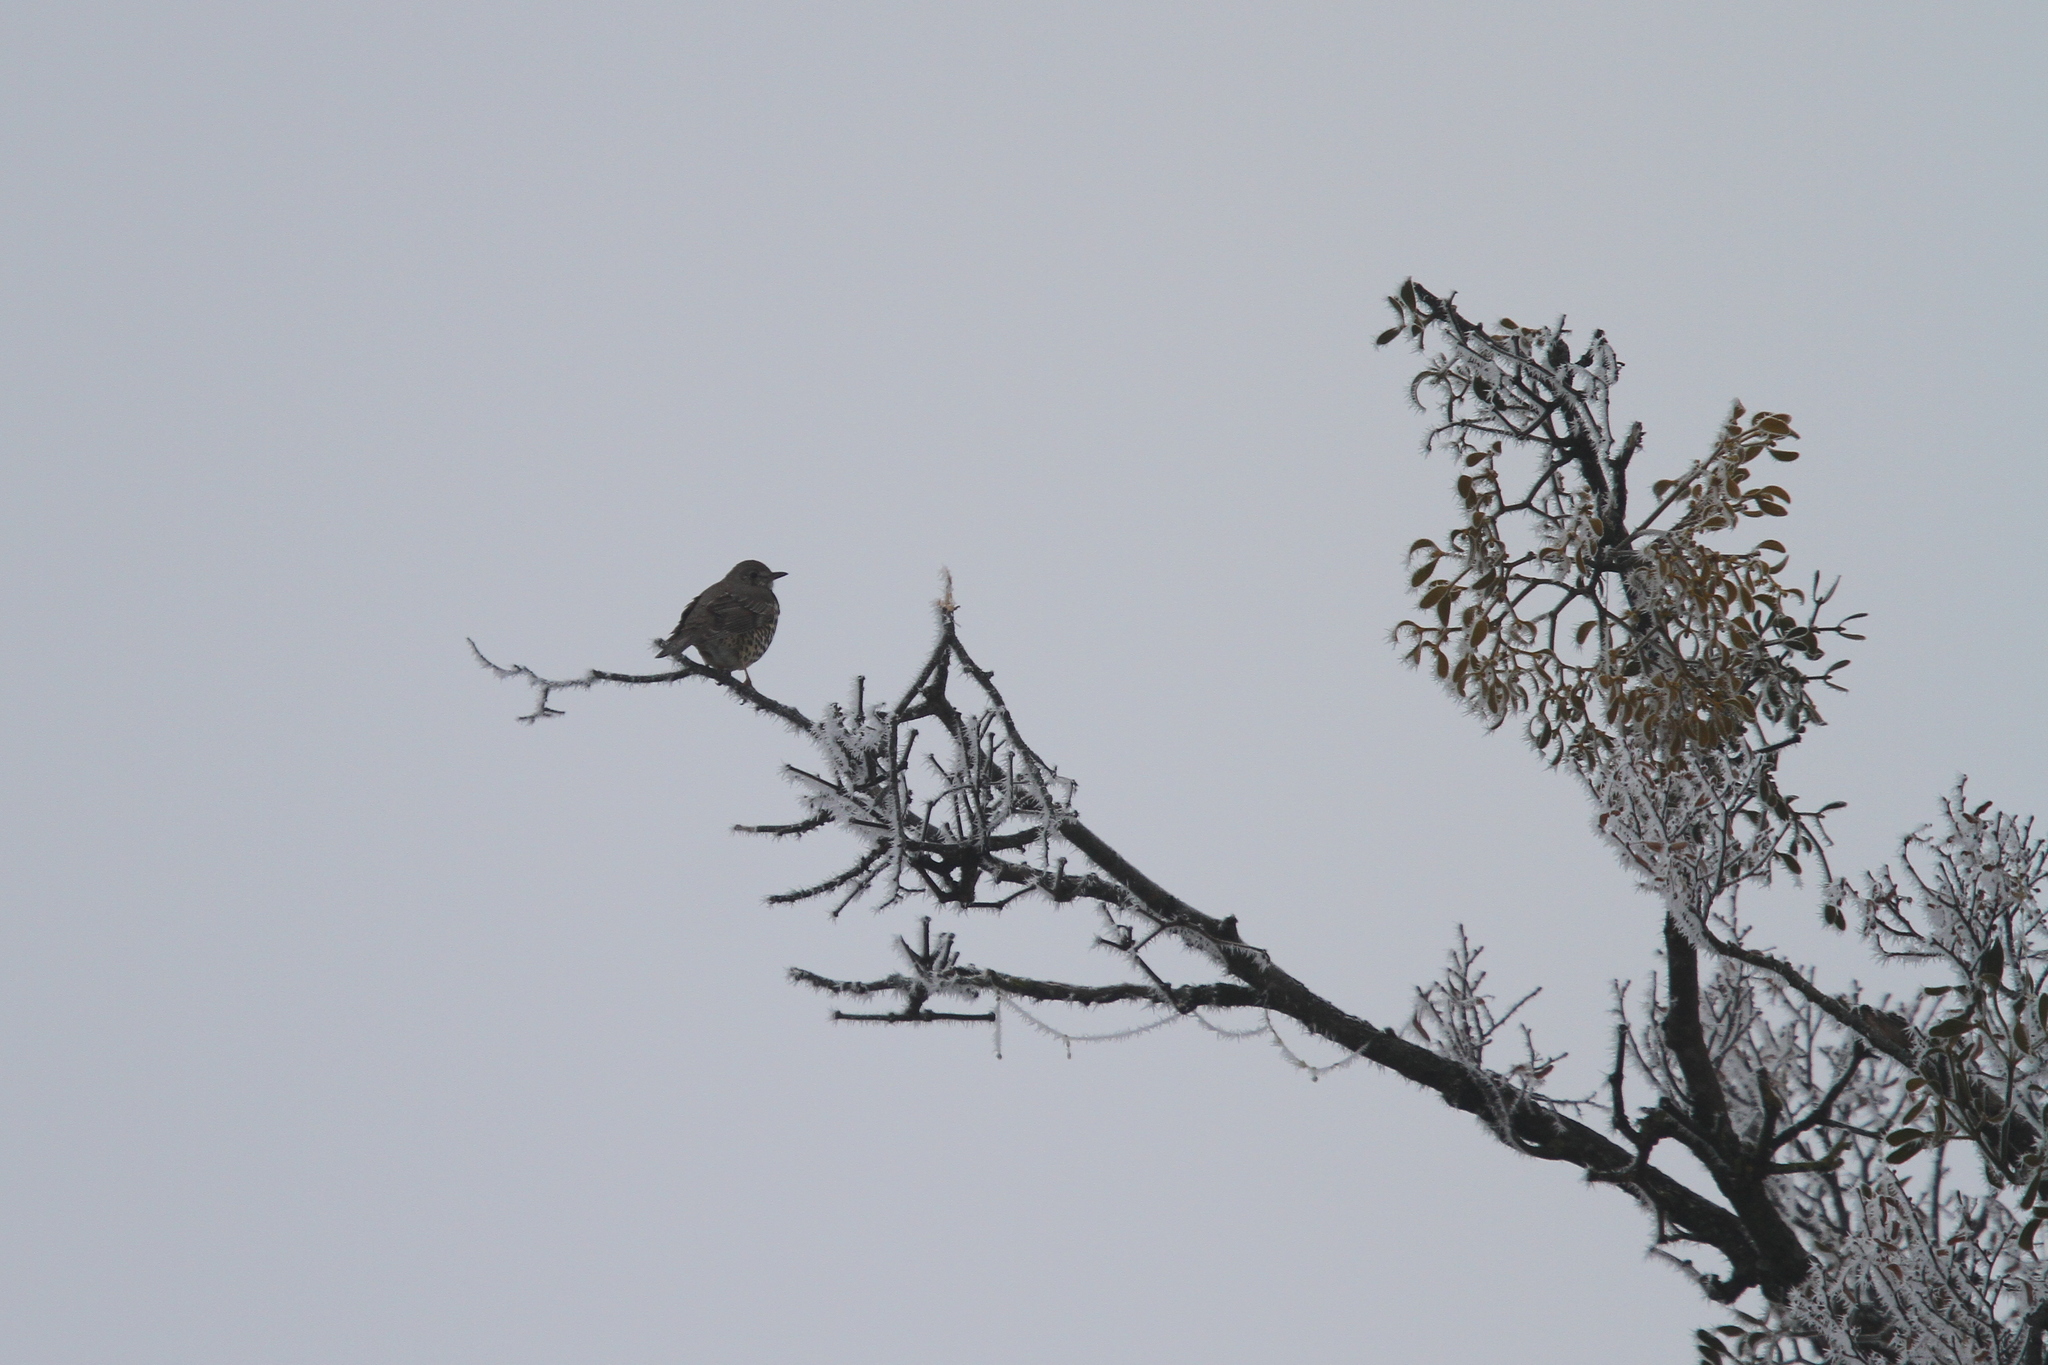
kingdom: Animalia
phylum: Chordata
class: Aves
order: Passeriformes
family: Turdidae
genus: Turdus
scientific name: Turdus viscivorus
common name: Mistle thrush
